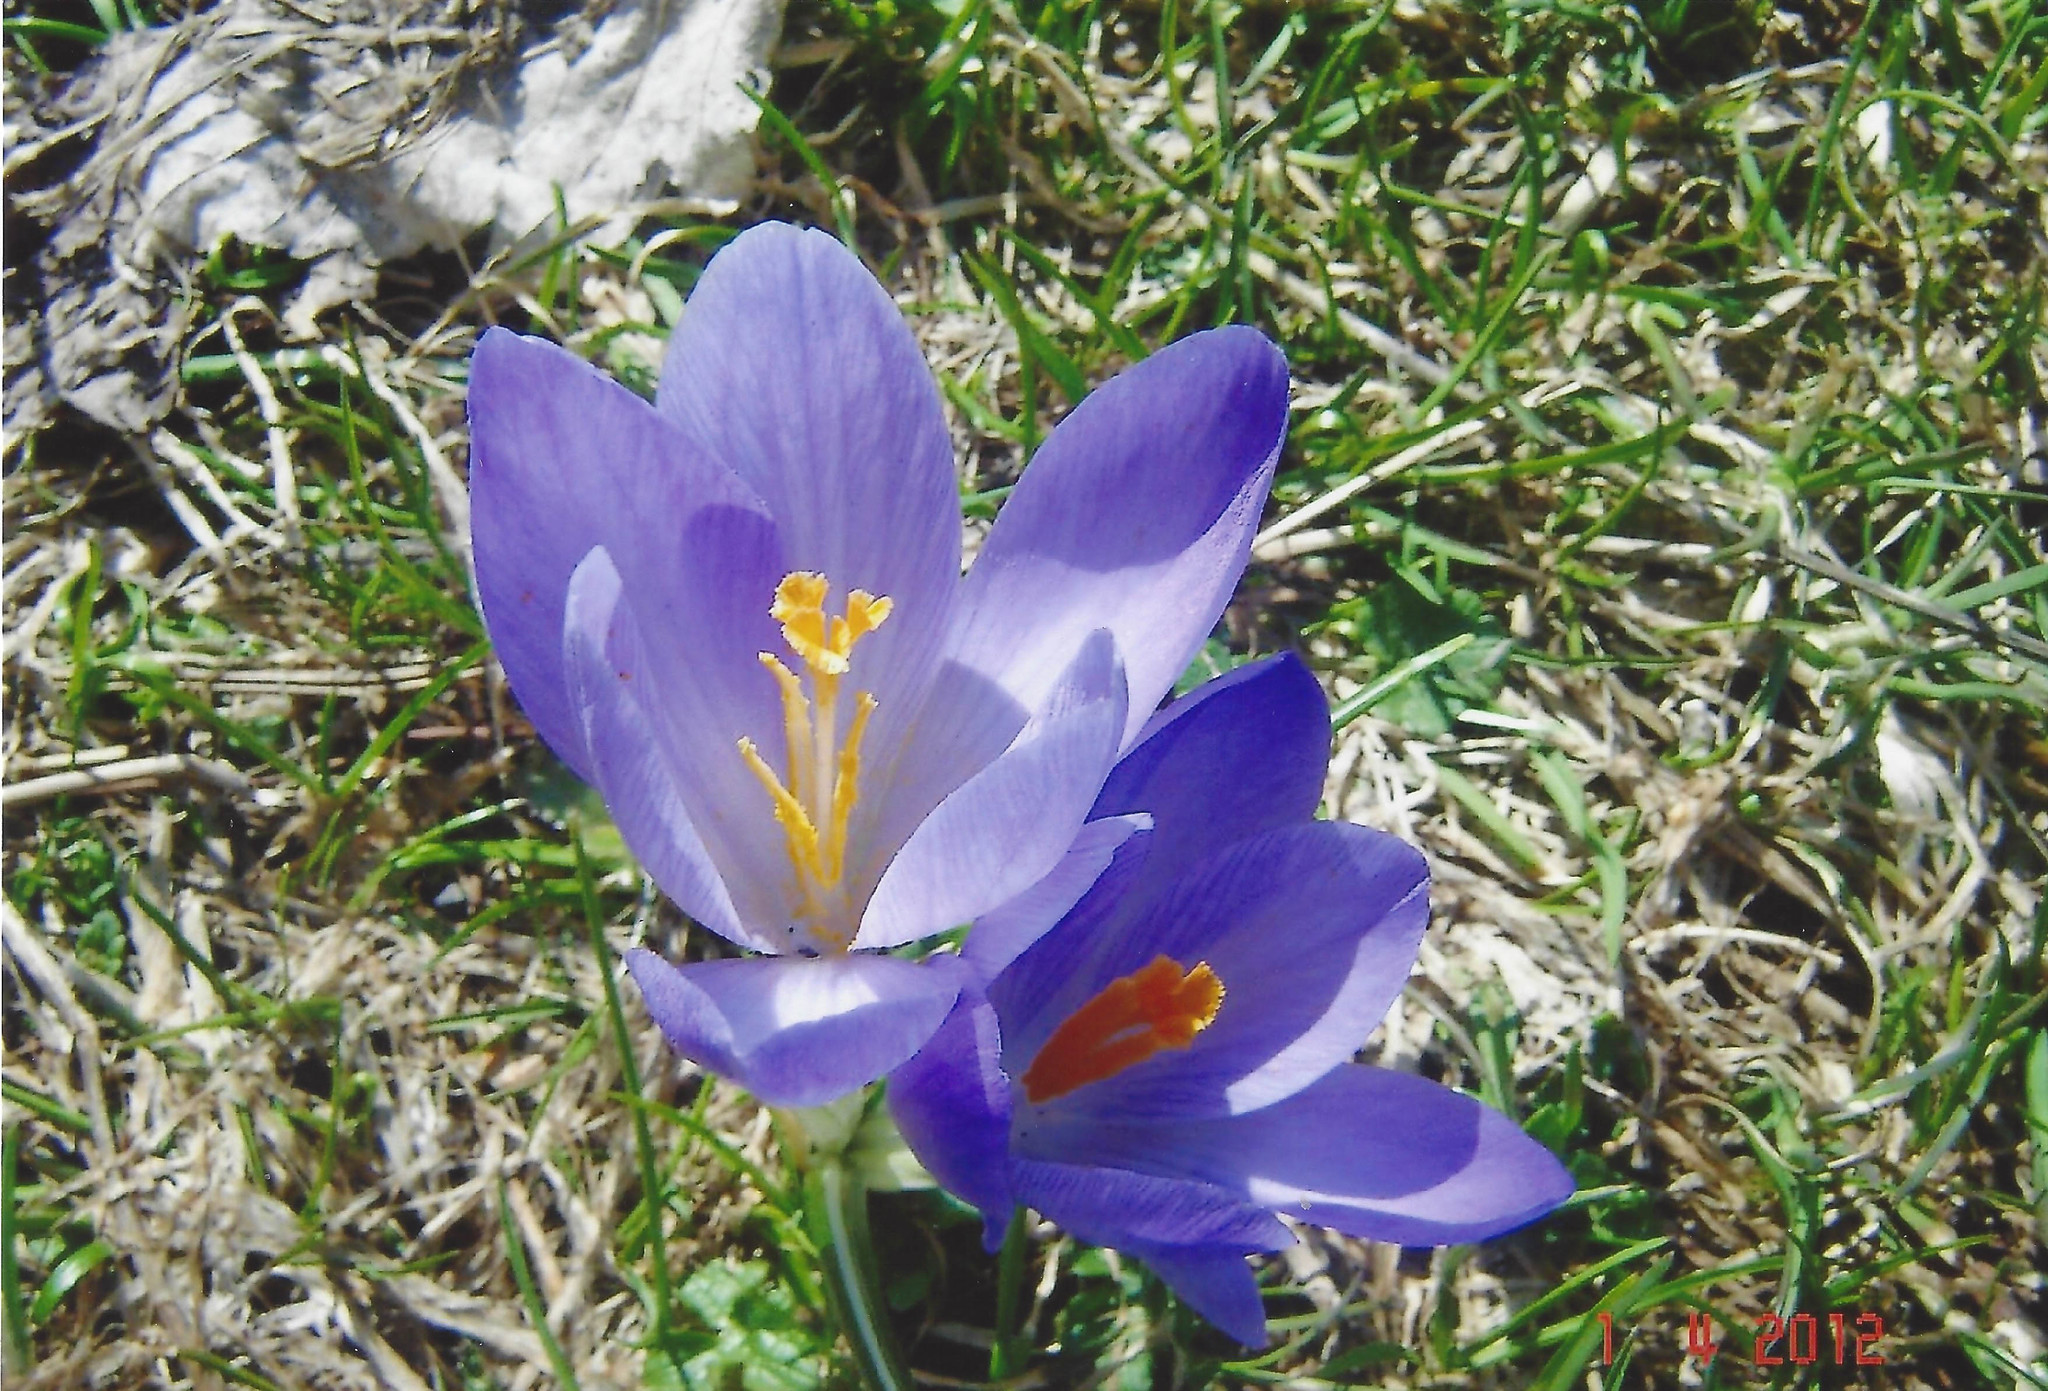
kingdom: Plantae
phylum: Tracheophyta
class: Liliopsida
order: Asparagales
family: Iridaceae
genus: Crocus
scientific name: Crocus neapolitanus
